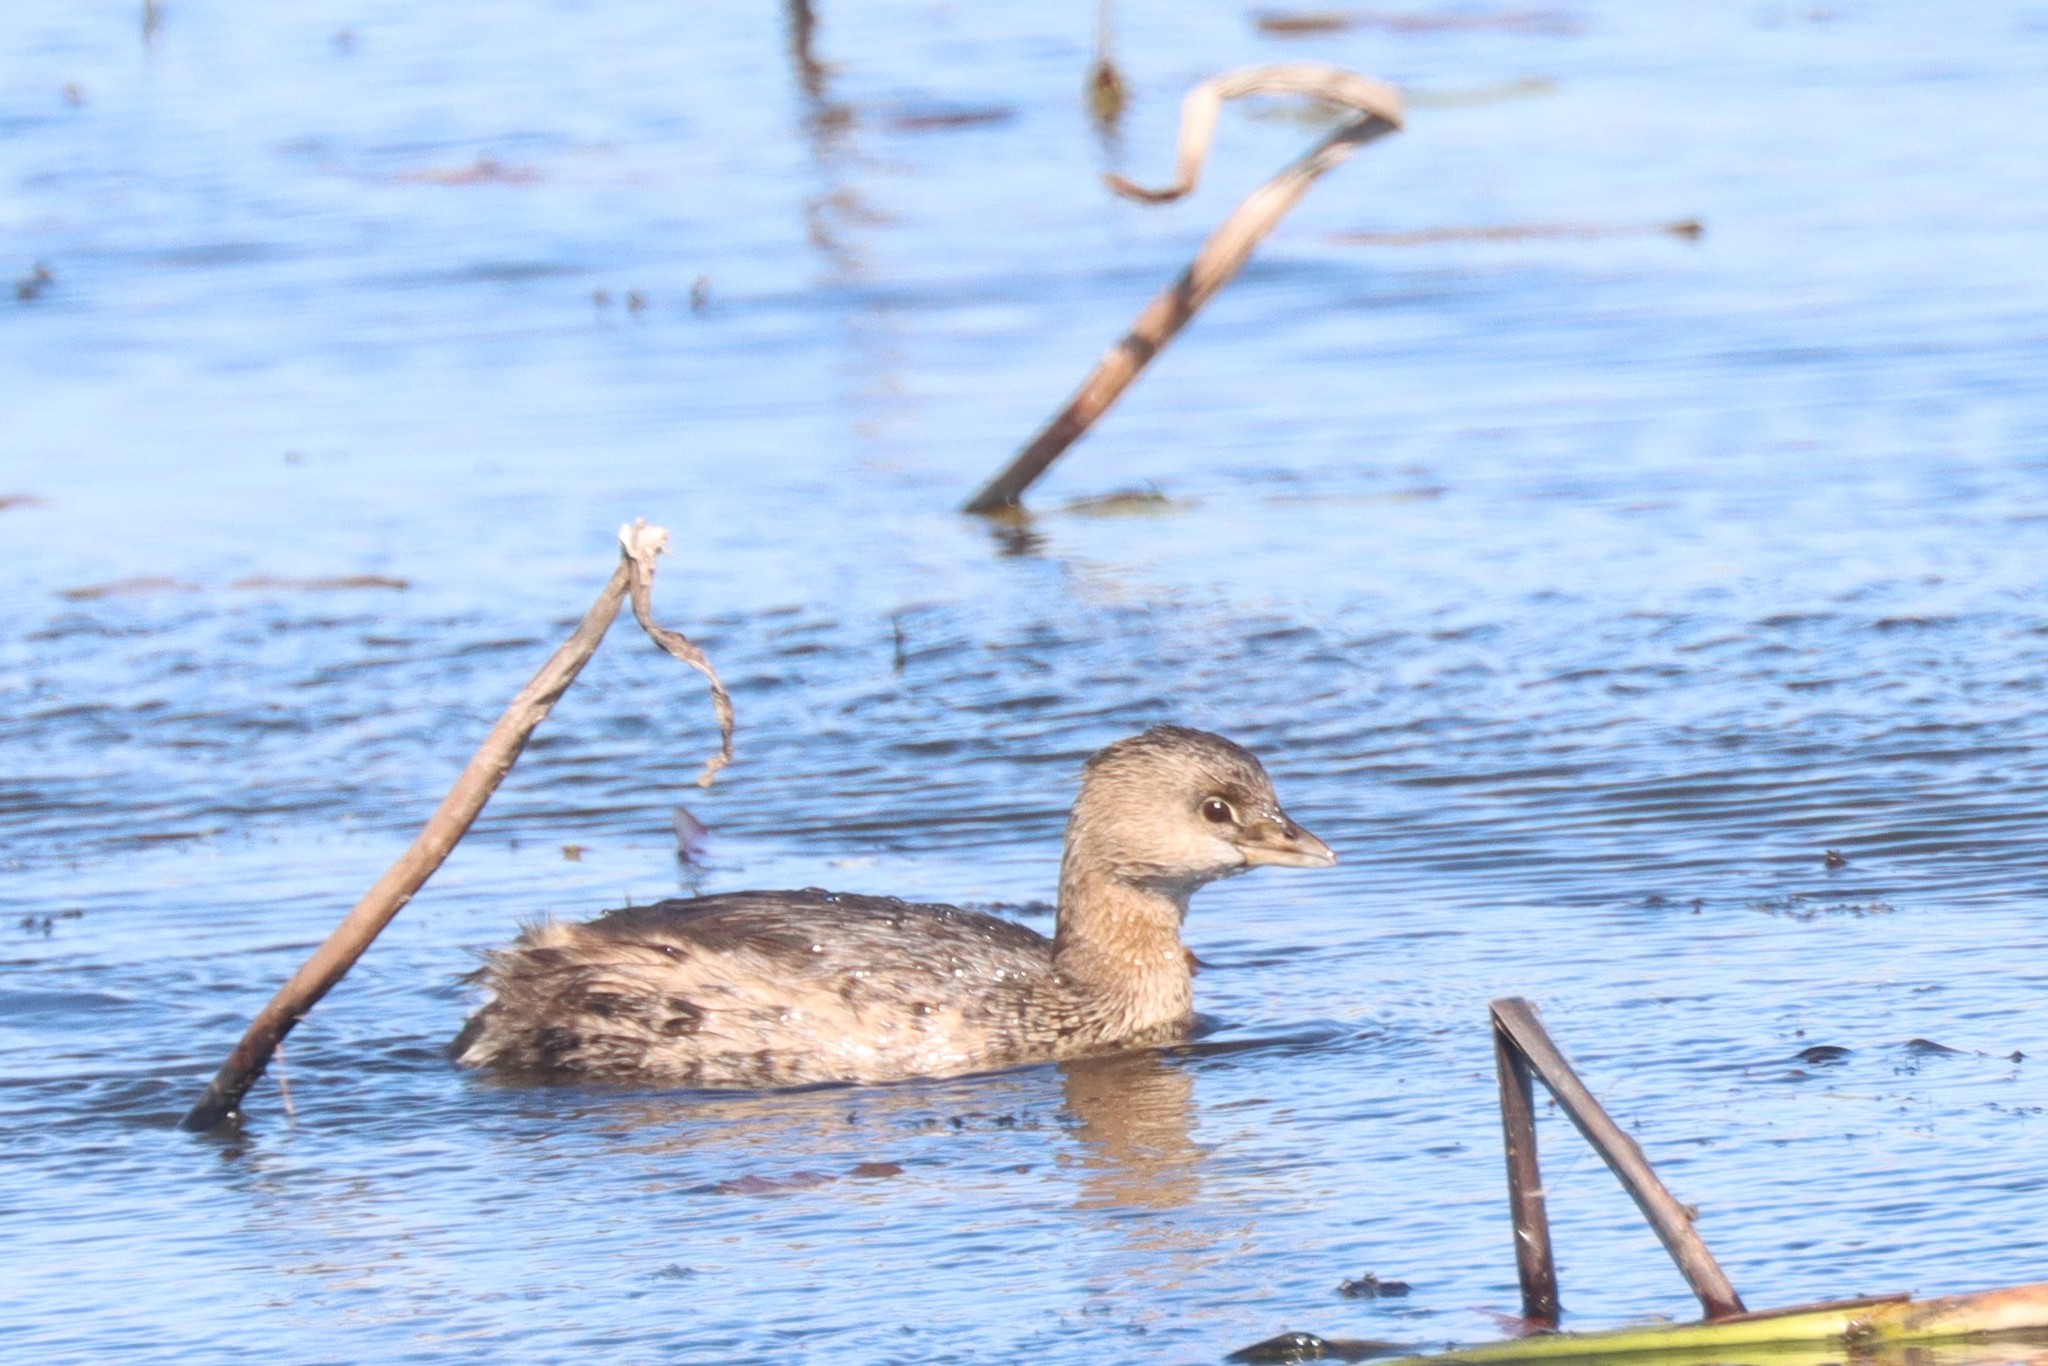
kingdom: Animalia
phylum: Chordata
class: Aves
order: Podicipediformes
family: Podicipedidae
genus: Podilymbus
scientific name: Podilymbus podiceps
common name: Pied-billed grebe
